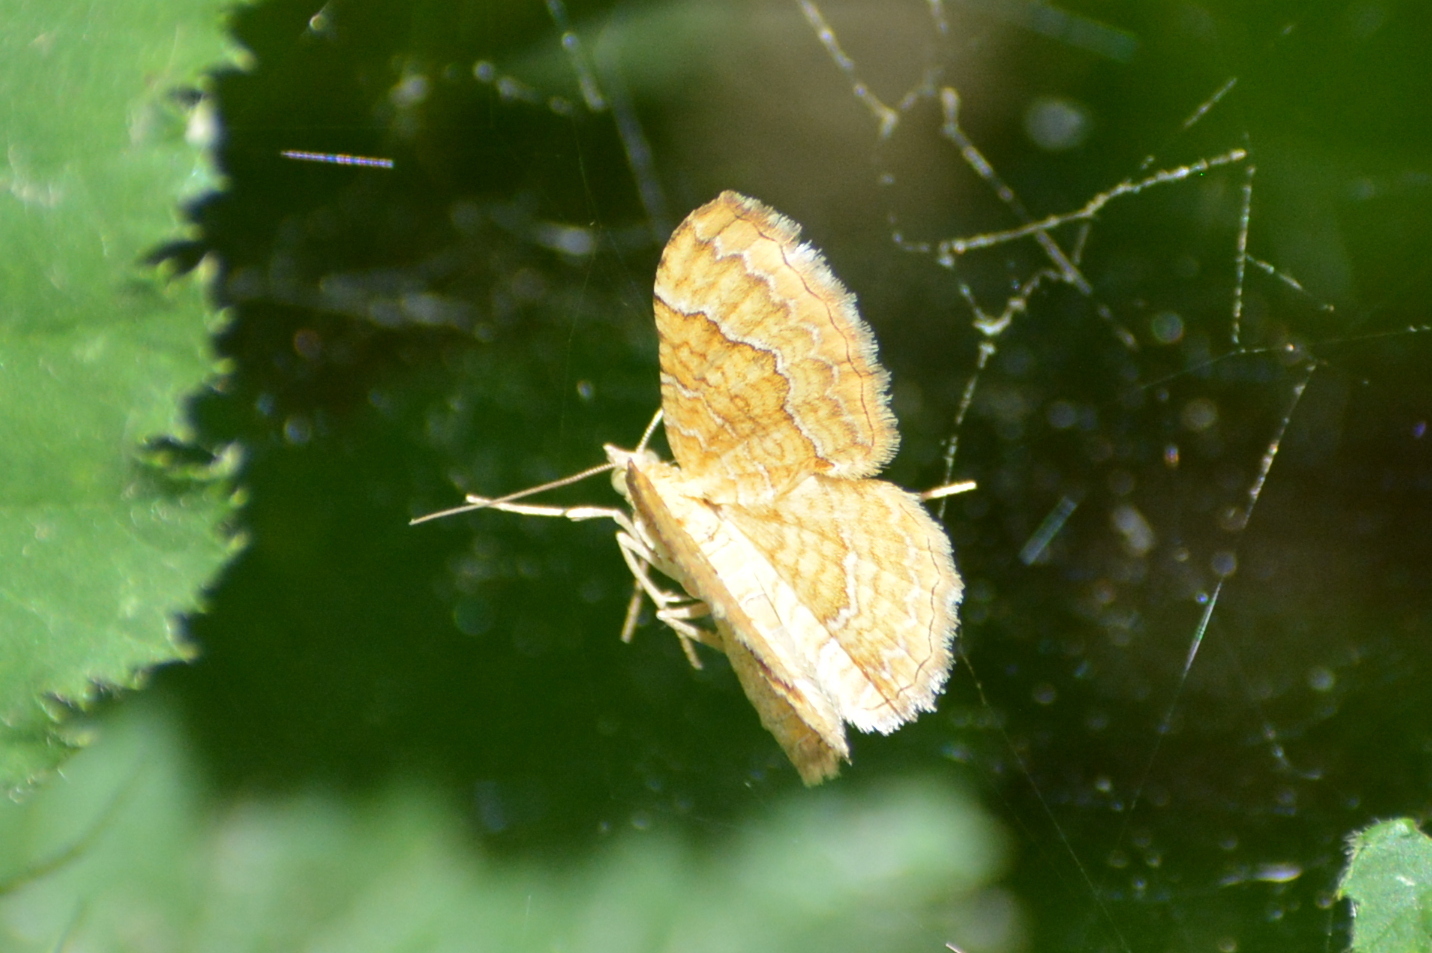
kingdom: Animalia
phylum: Arthropoda
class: Insecta
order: Lepidoptera
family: Geometridae
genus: Camptogramma
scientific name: Camptogramma bilineata
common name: Yellow shell
